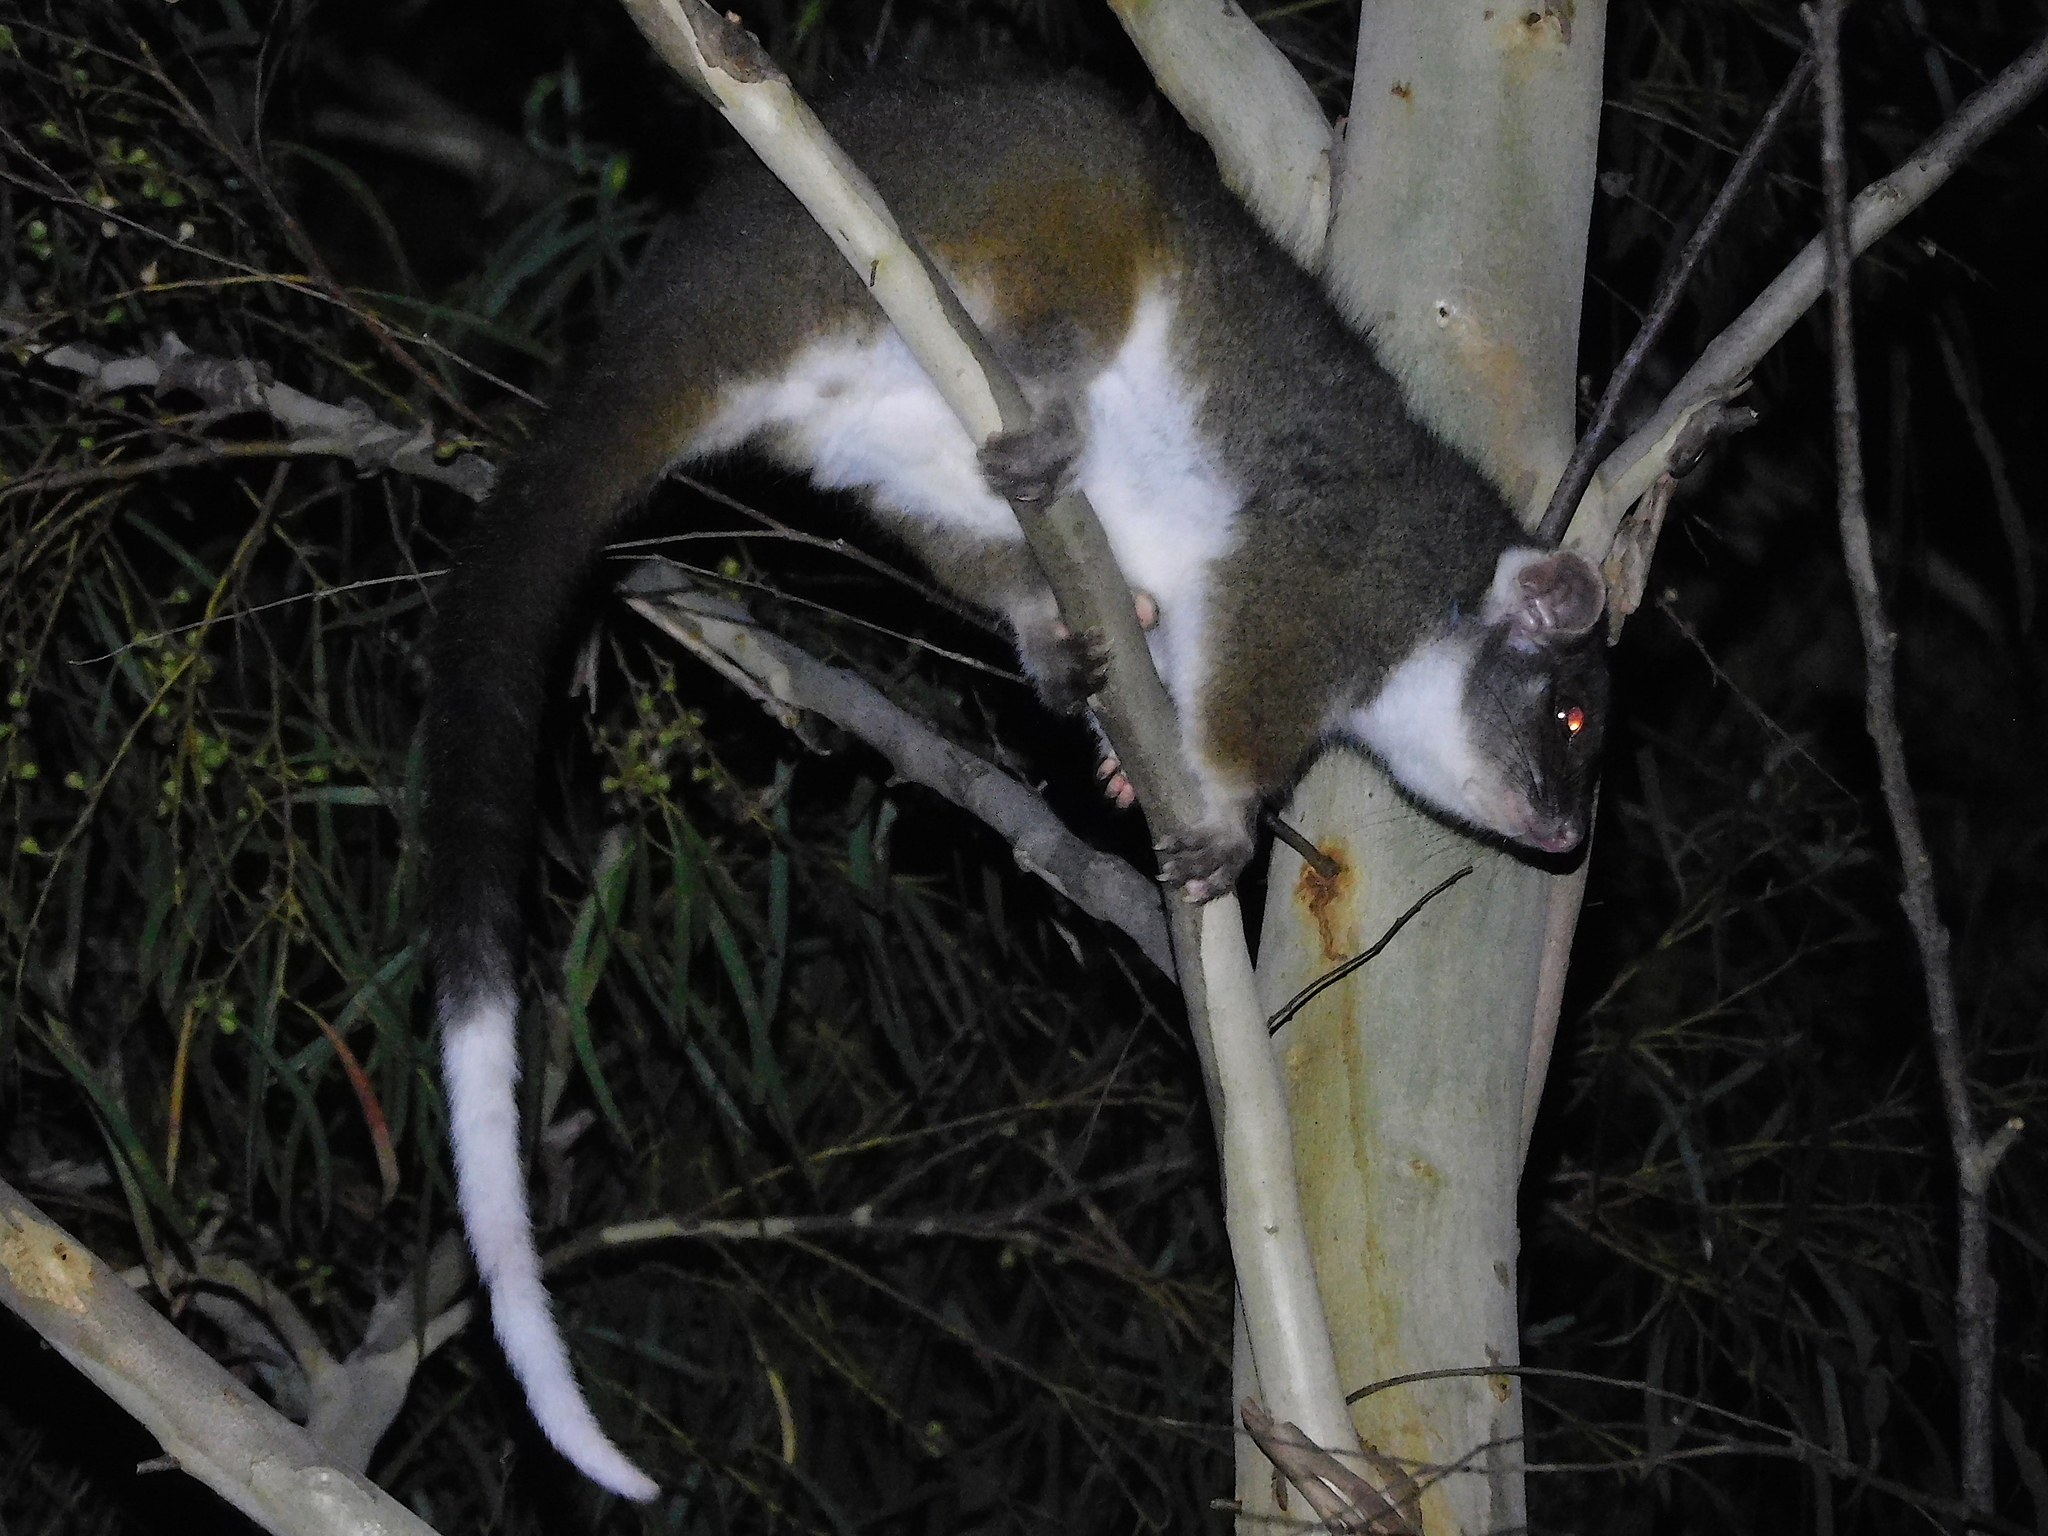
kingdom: Animalia
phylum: Chordata
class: Mammalia
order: Diprotodontia
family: Pseudocheiridae
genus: Pseudocheirus
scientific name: Pseudocheirus peregrinus
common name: Common ringtail possum
